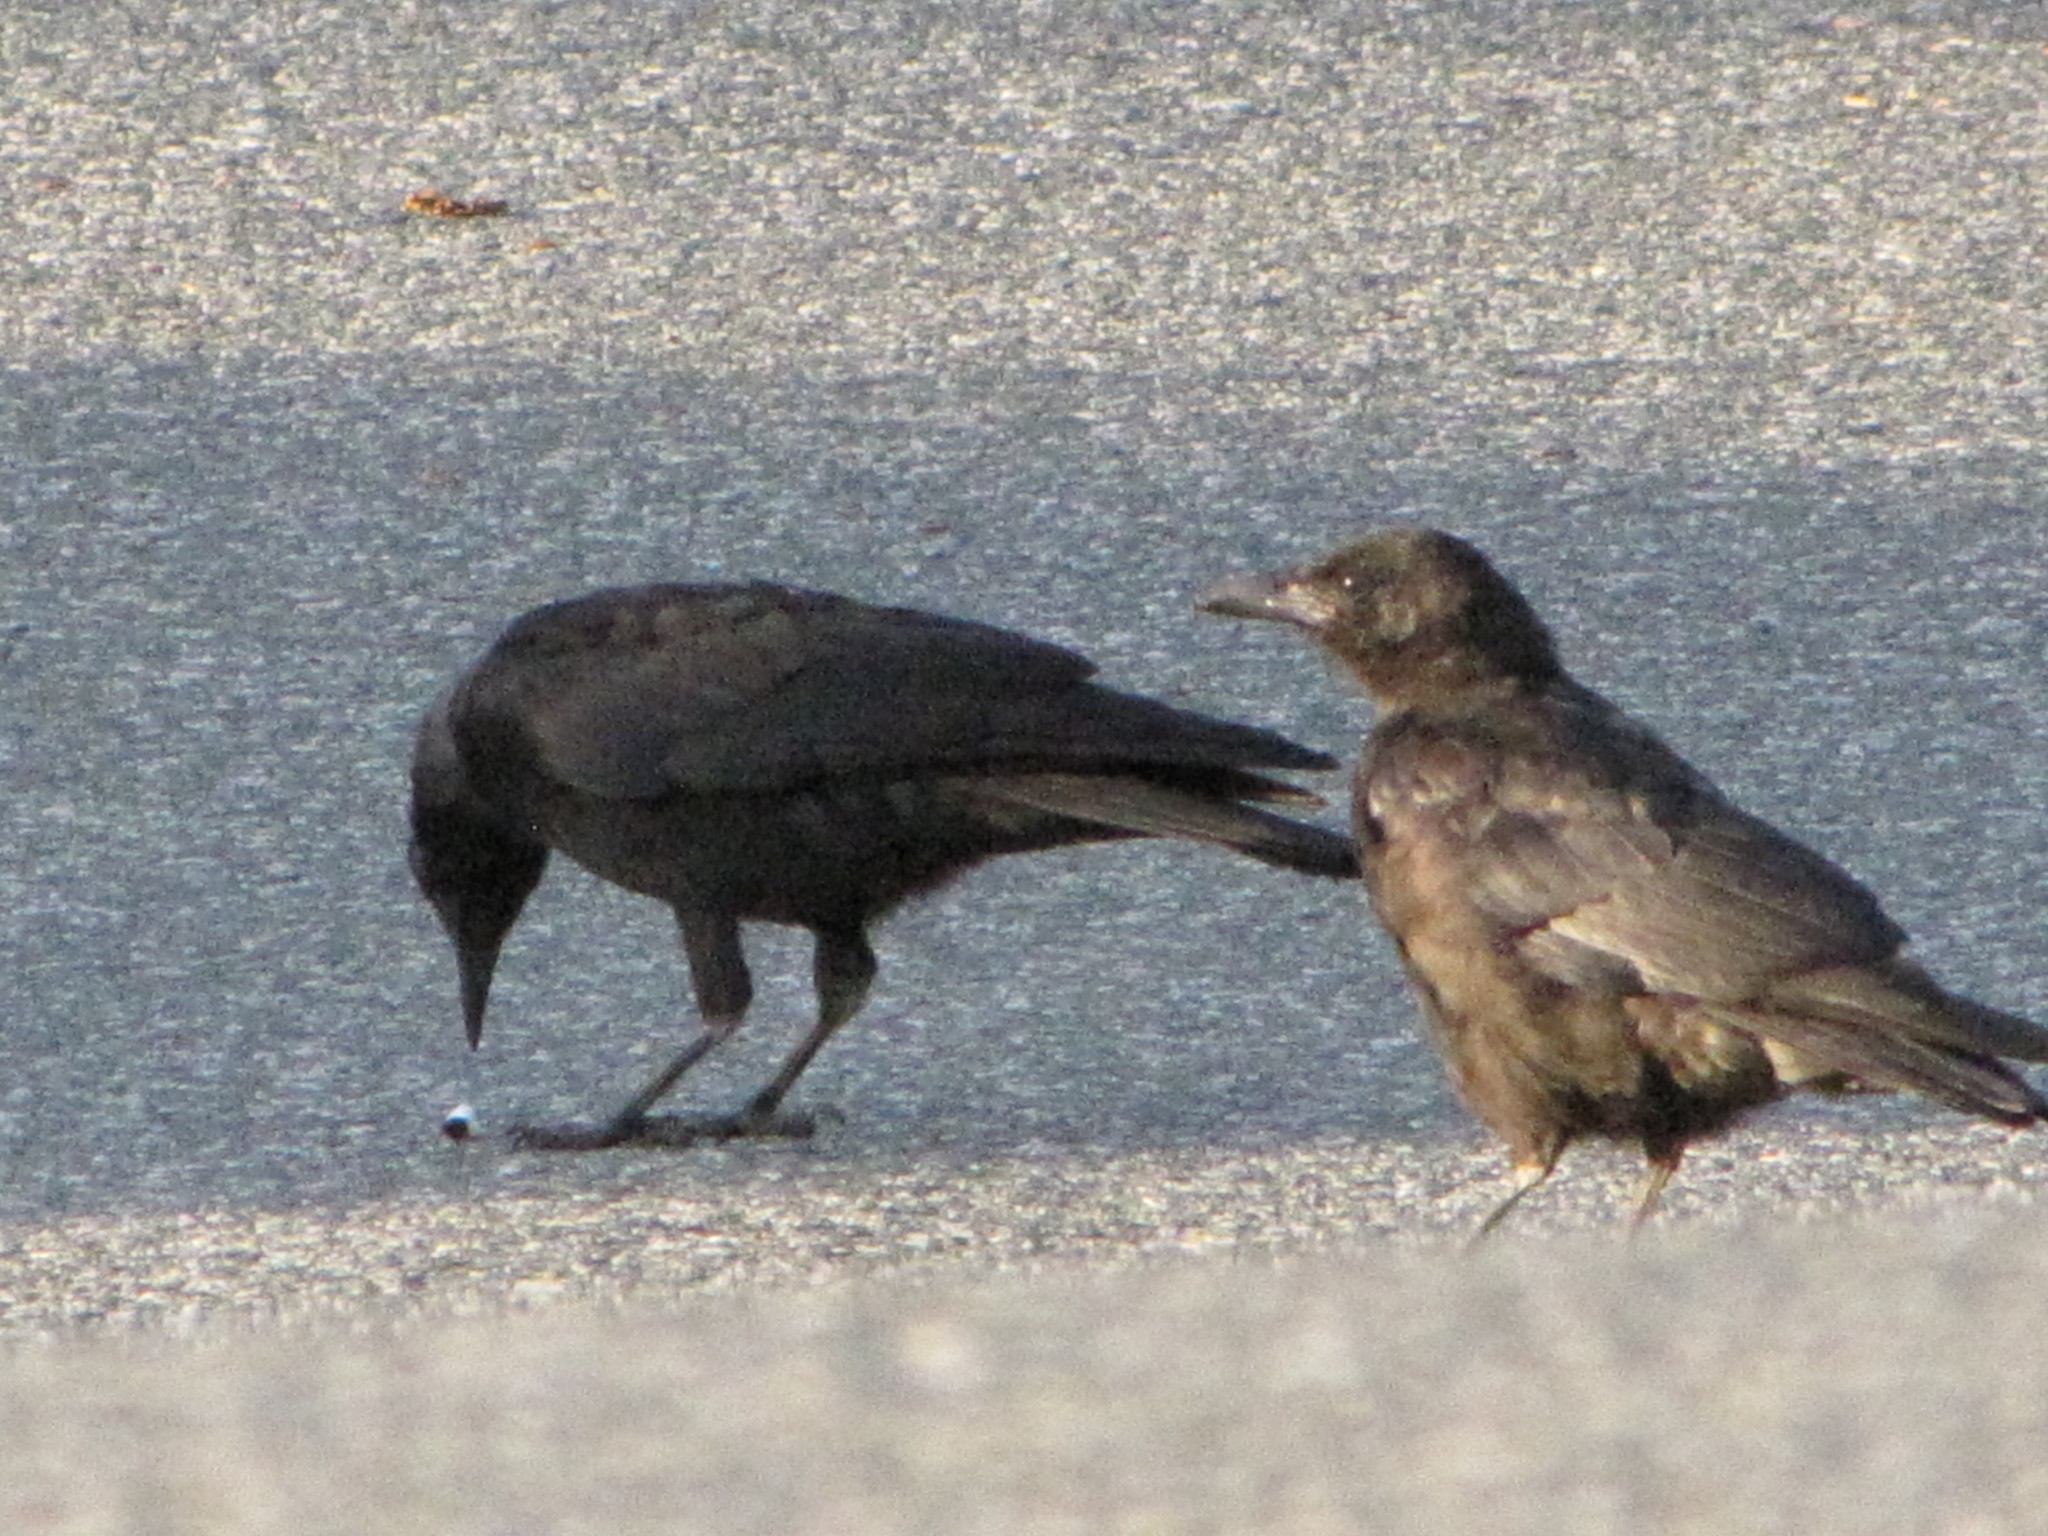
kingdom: Animalia
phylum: Chordata
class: Aves
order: Passeriformes
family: Corvidae
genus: Corvus
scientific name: Corvus brachyrhynchos
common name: American crow
